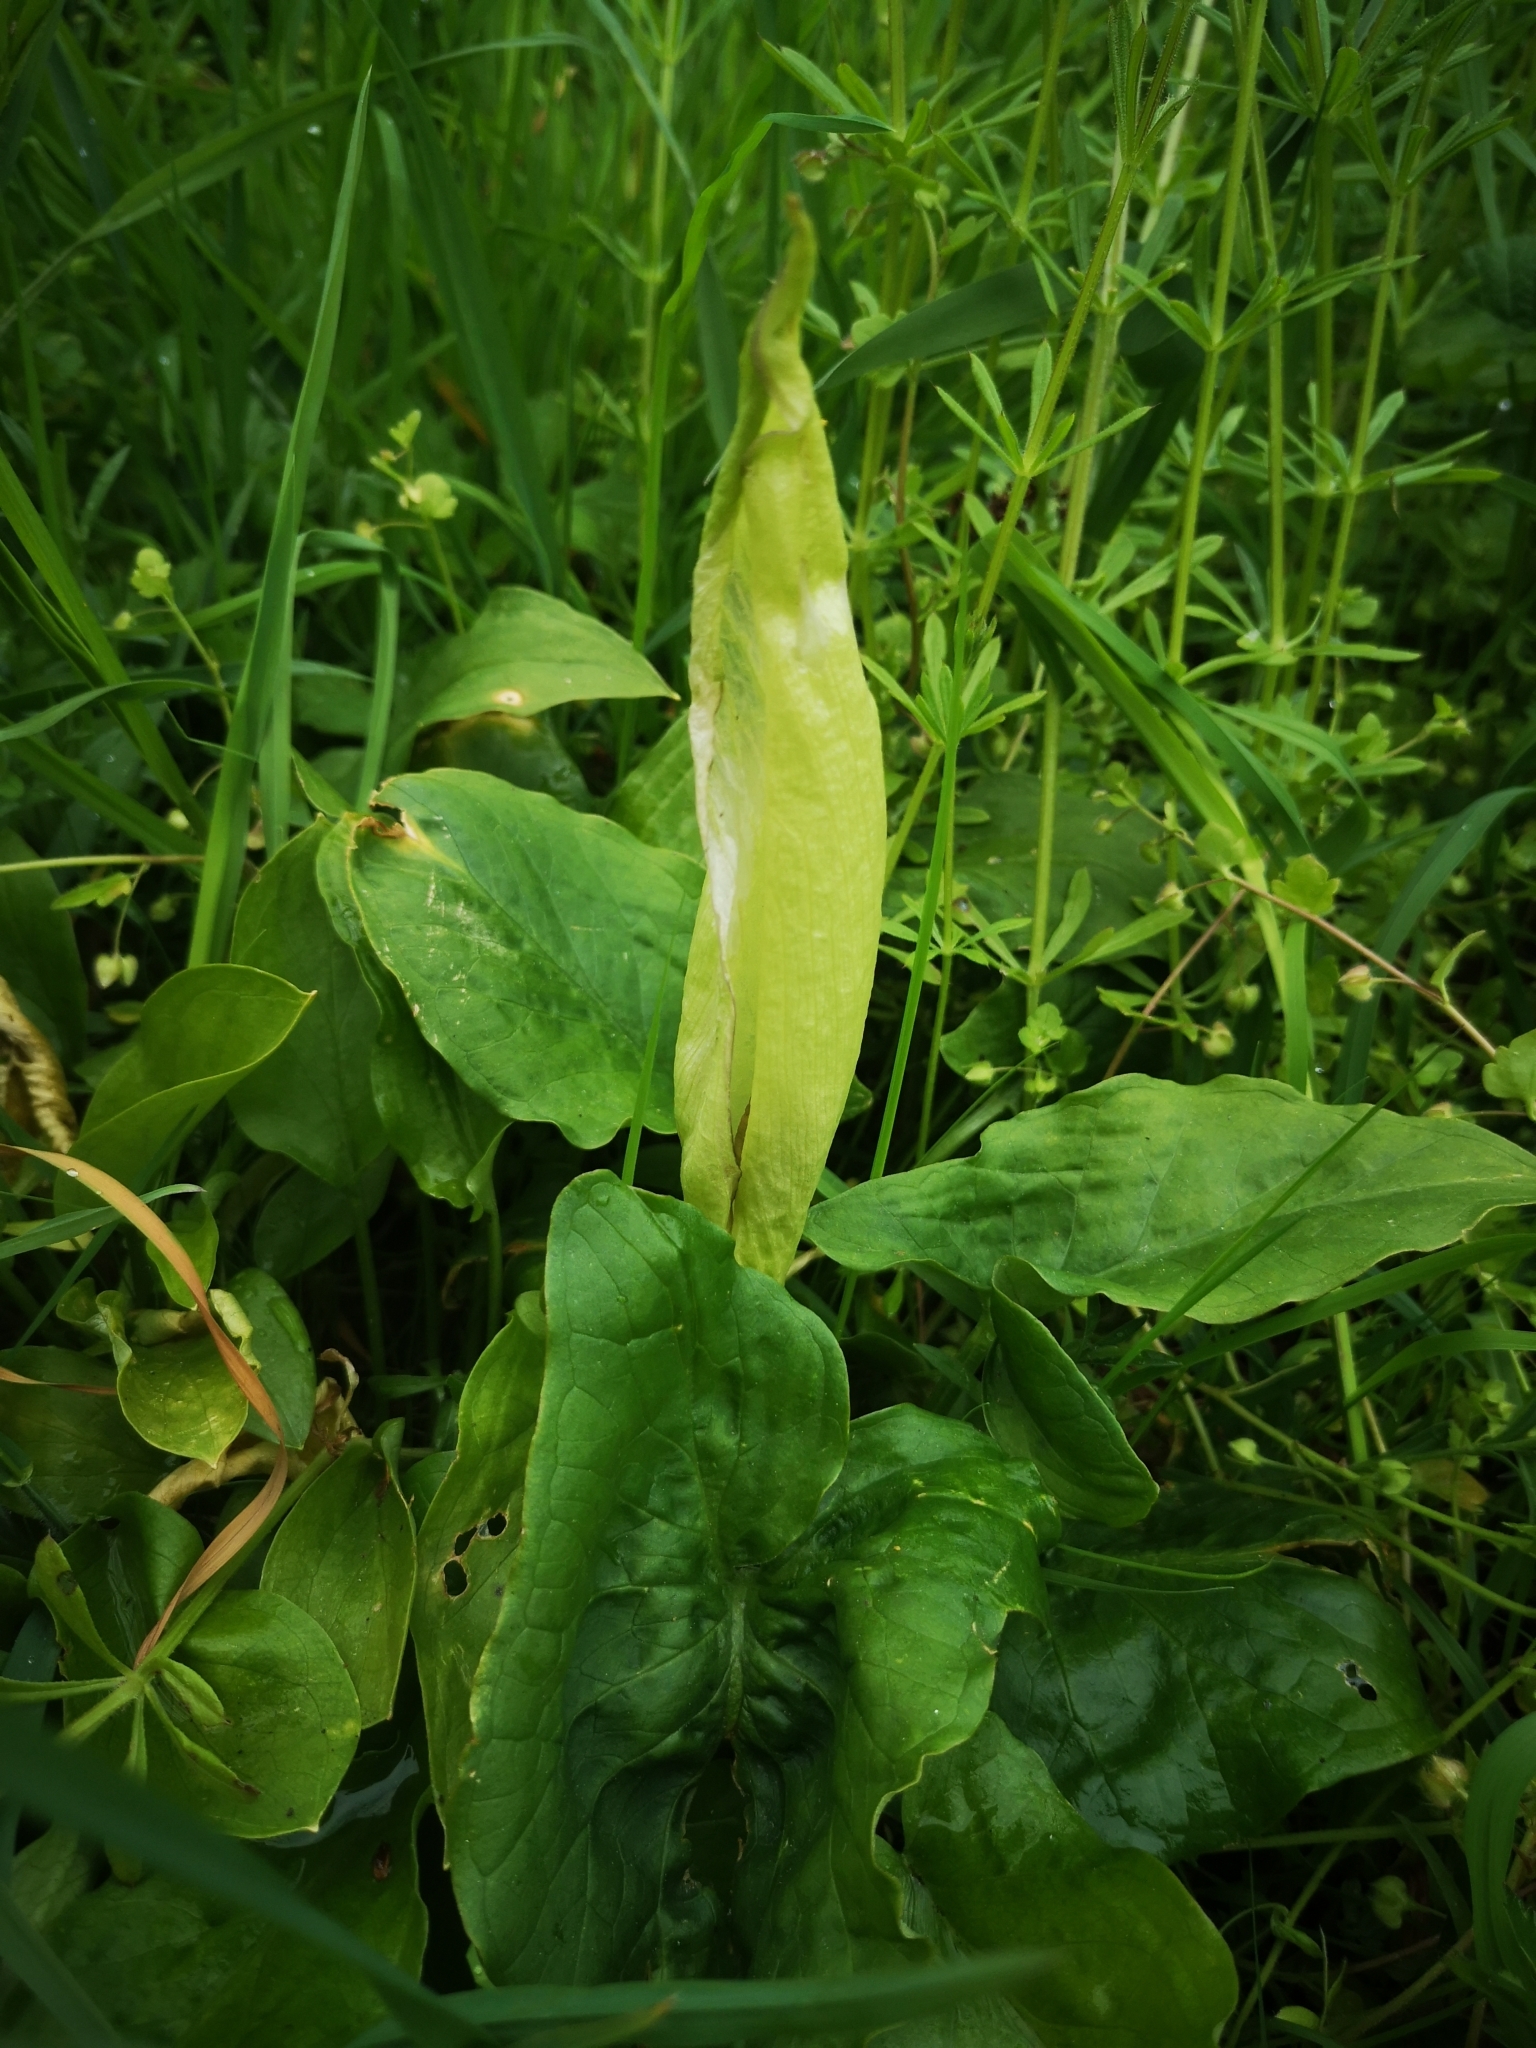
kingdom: Plantae
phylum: Tracheophyta
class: Liliopsida
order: Alismatales
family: Araceae
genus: Arum
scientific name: Arum maculatum
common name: Lords-and-ladies
